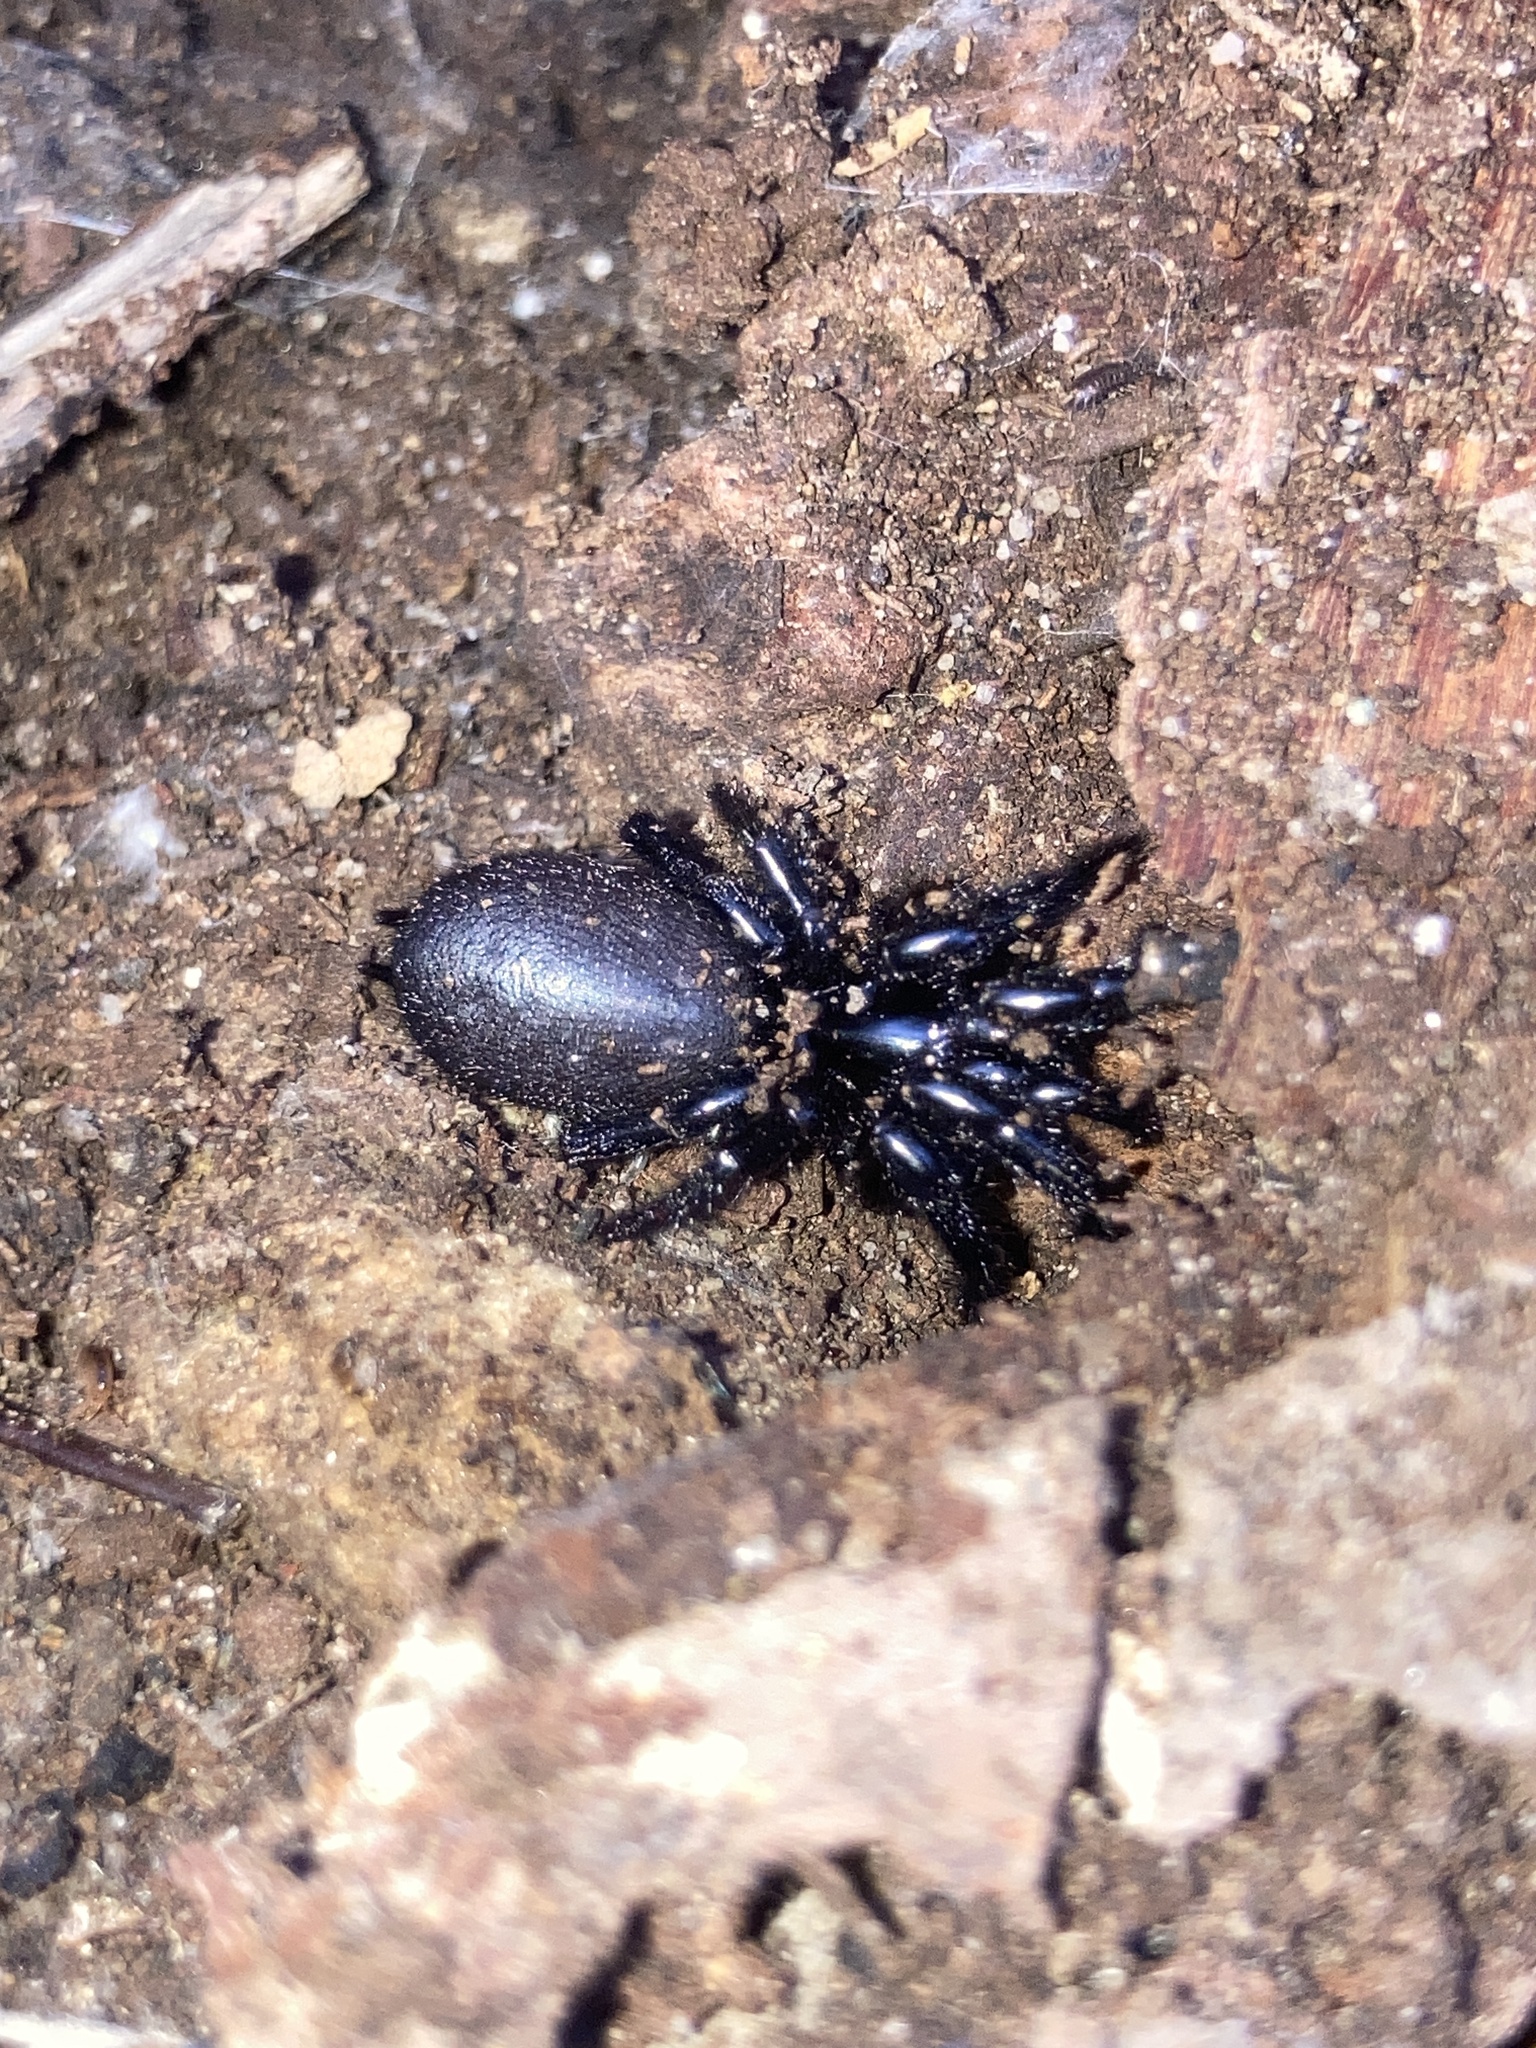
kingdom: Animalia
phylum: Arthropoda
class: Arachnida
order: Araneae
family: Atracidae
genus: Atrax
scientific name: Atrax robustus
